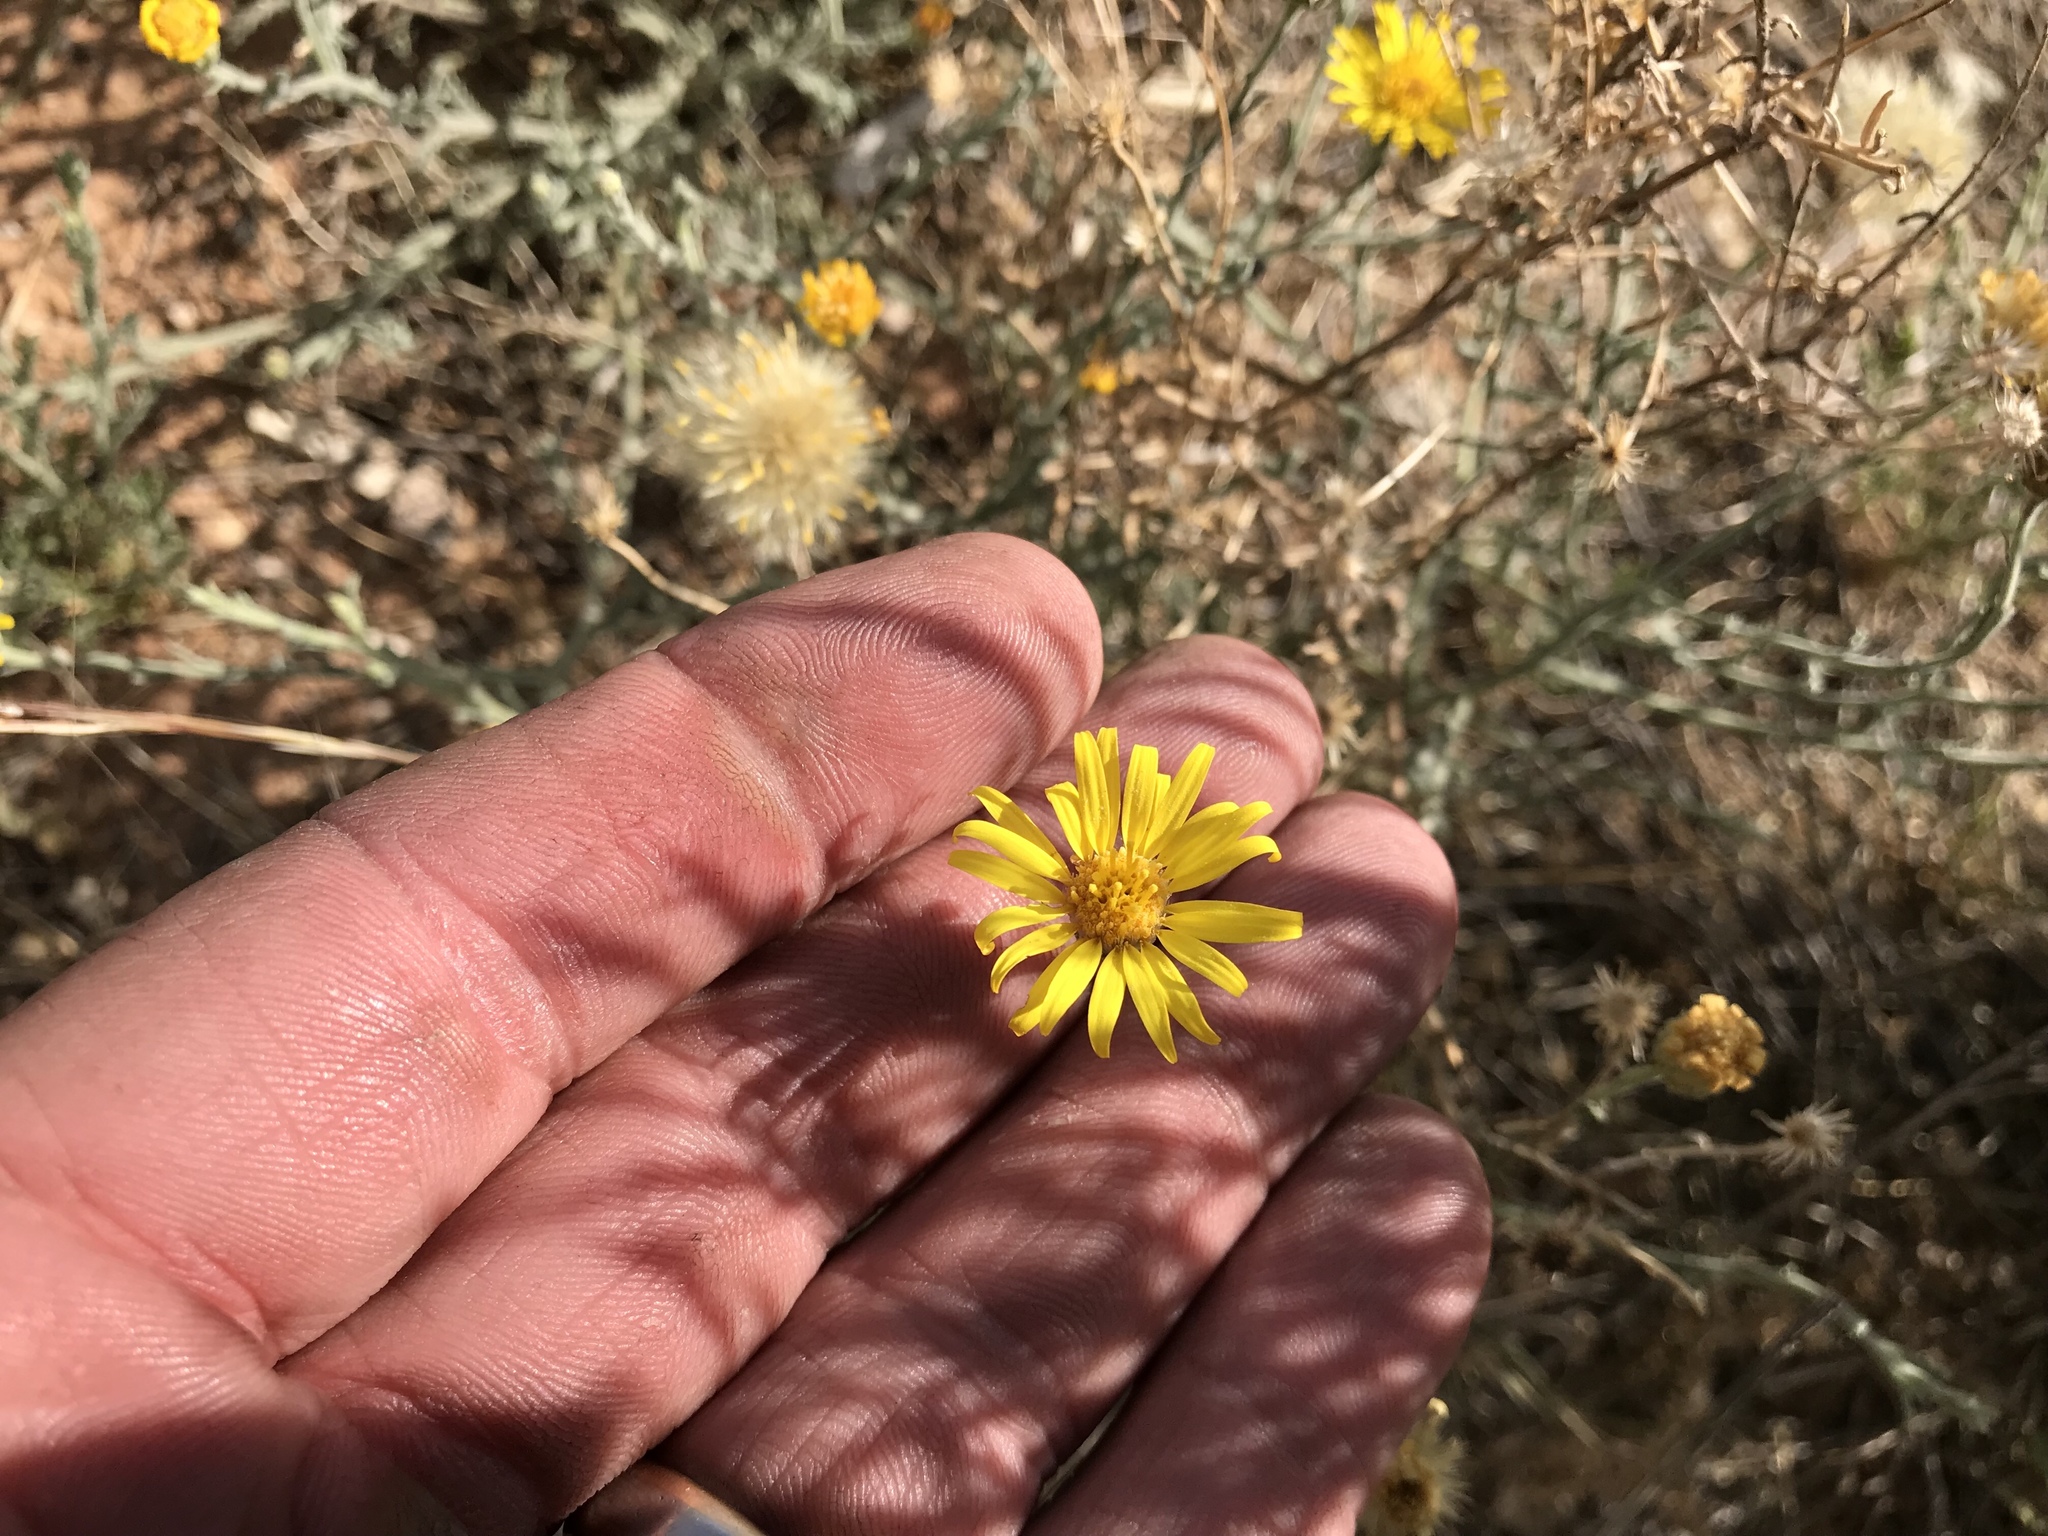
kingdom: Plantae
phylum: Tracheophyta
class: Magnoliopsida
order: Asterales
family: Asteraceae
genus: Xanthisma
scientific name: Xanthisma spinulosum
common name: Spiny goldenweed
